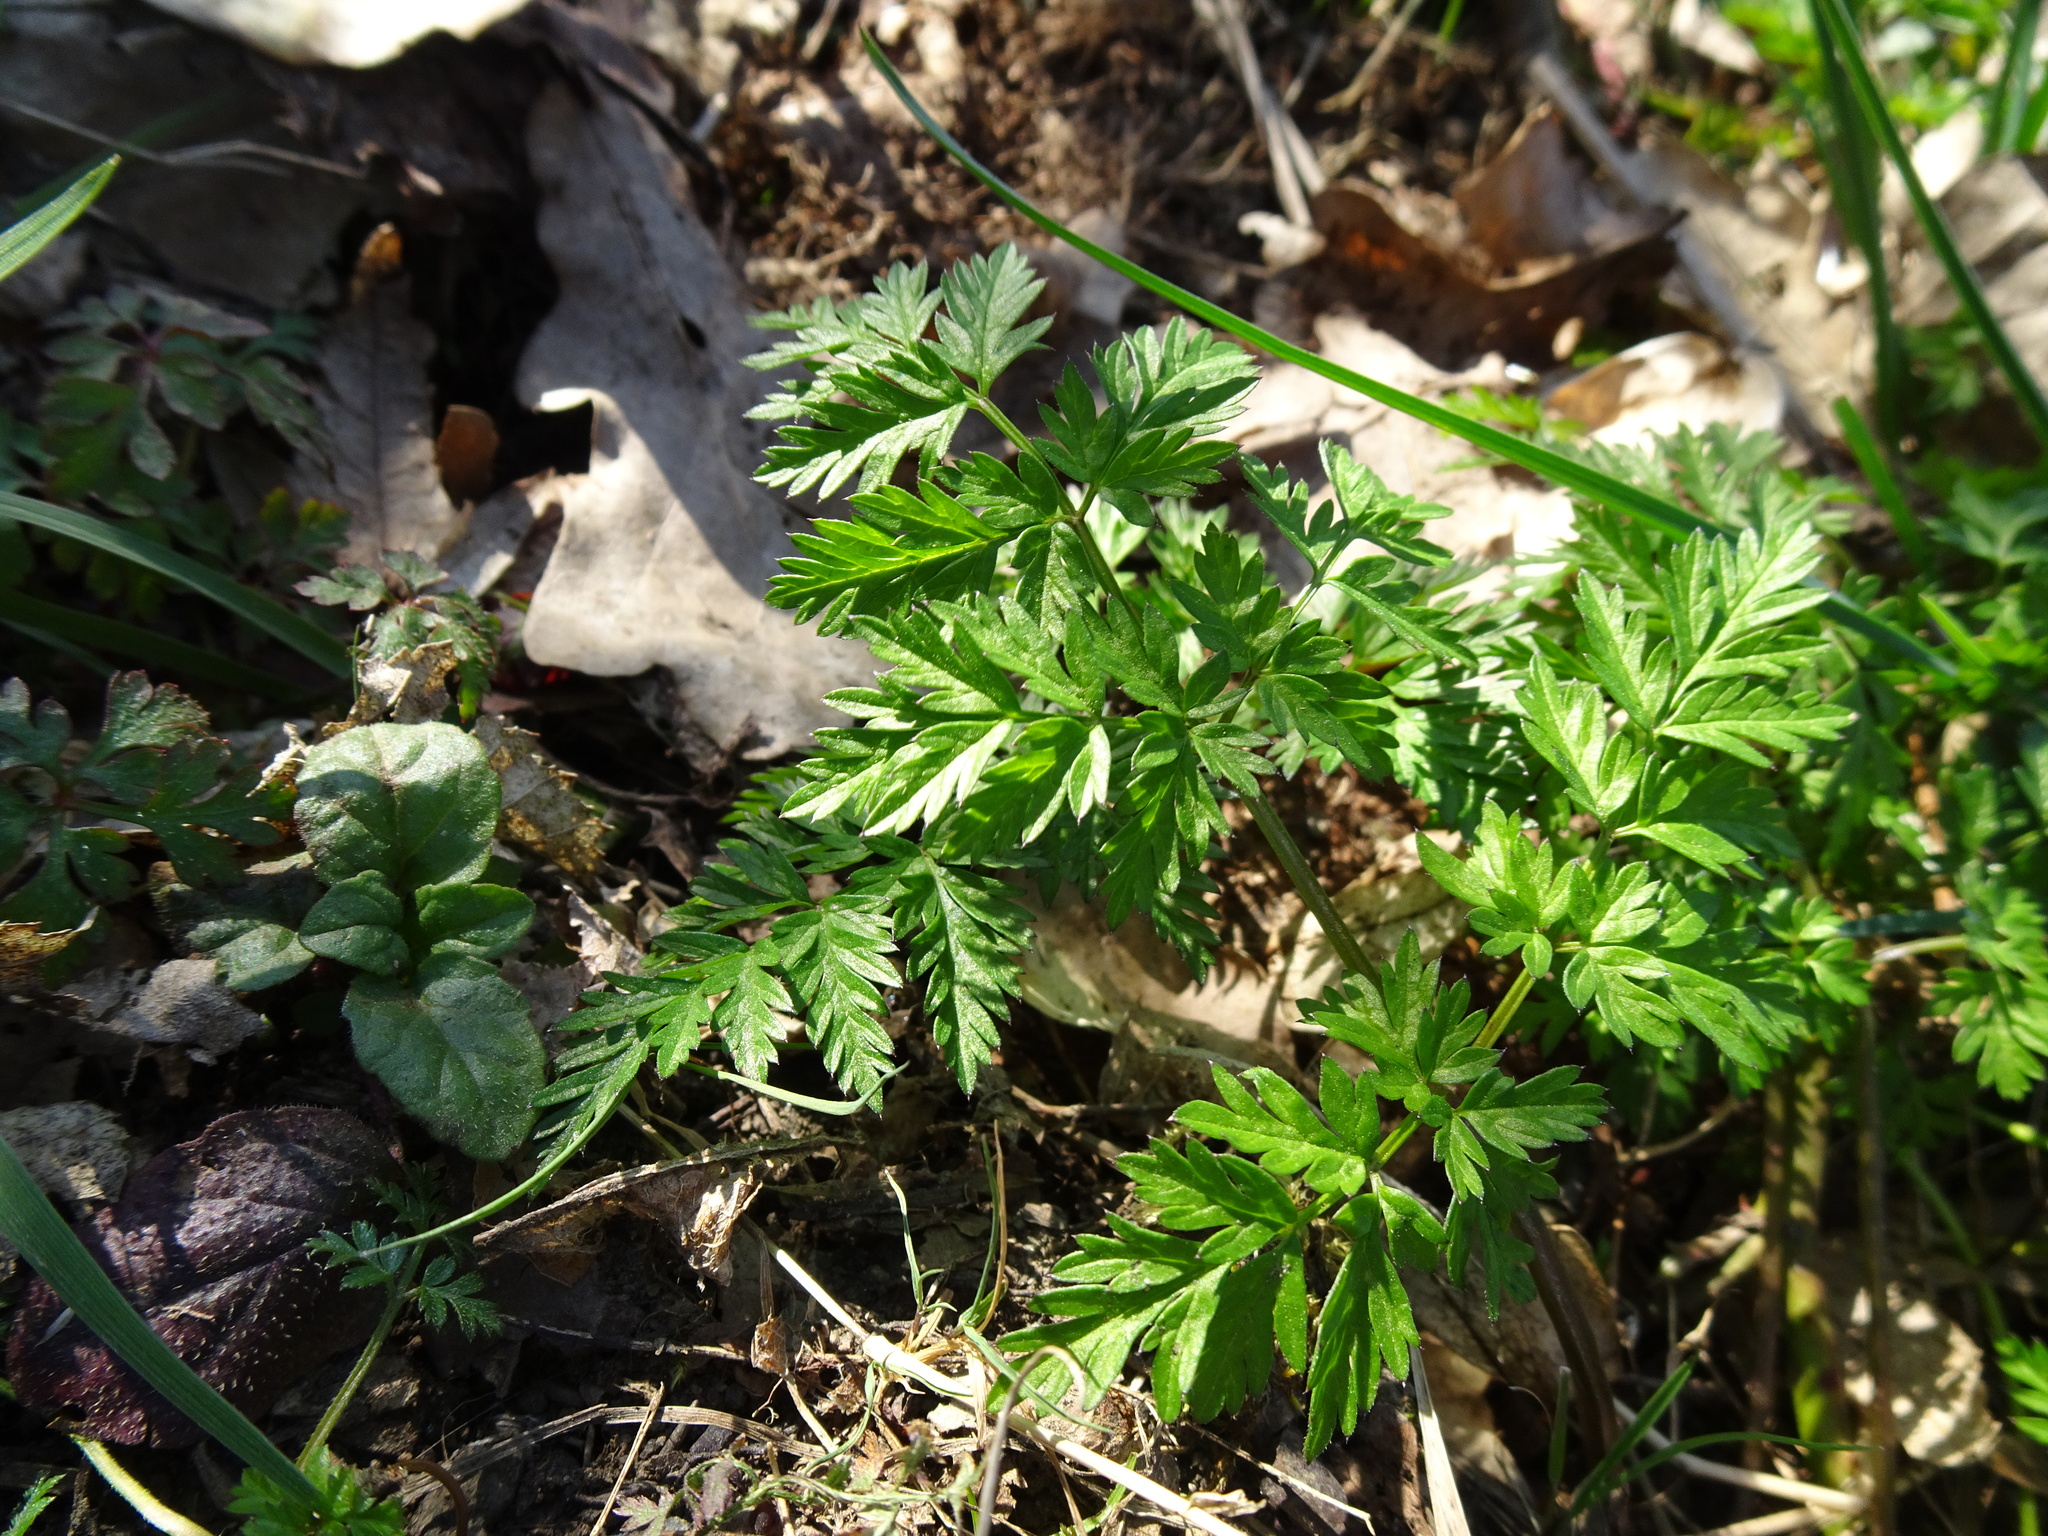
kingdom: Plantae
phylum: Tracheophyta
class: Magnoliopsida
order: Apiales
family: Apiaceae
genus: Anthriscus
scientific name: Anthriscus sylvestris
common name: Cow parsley
